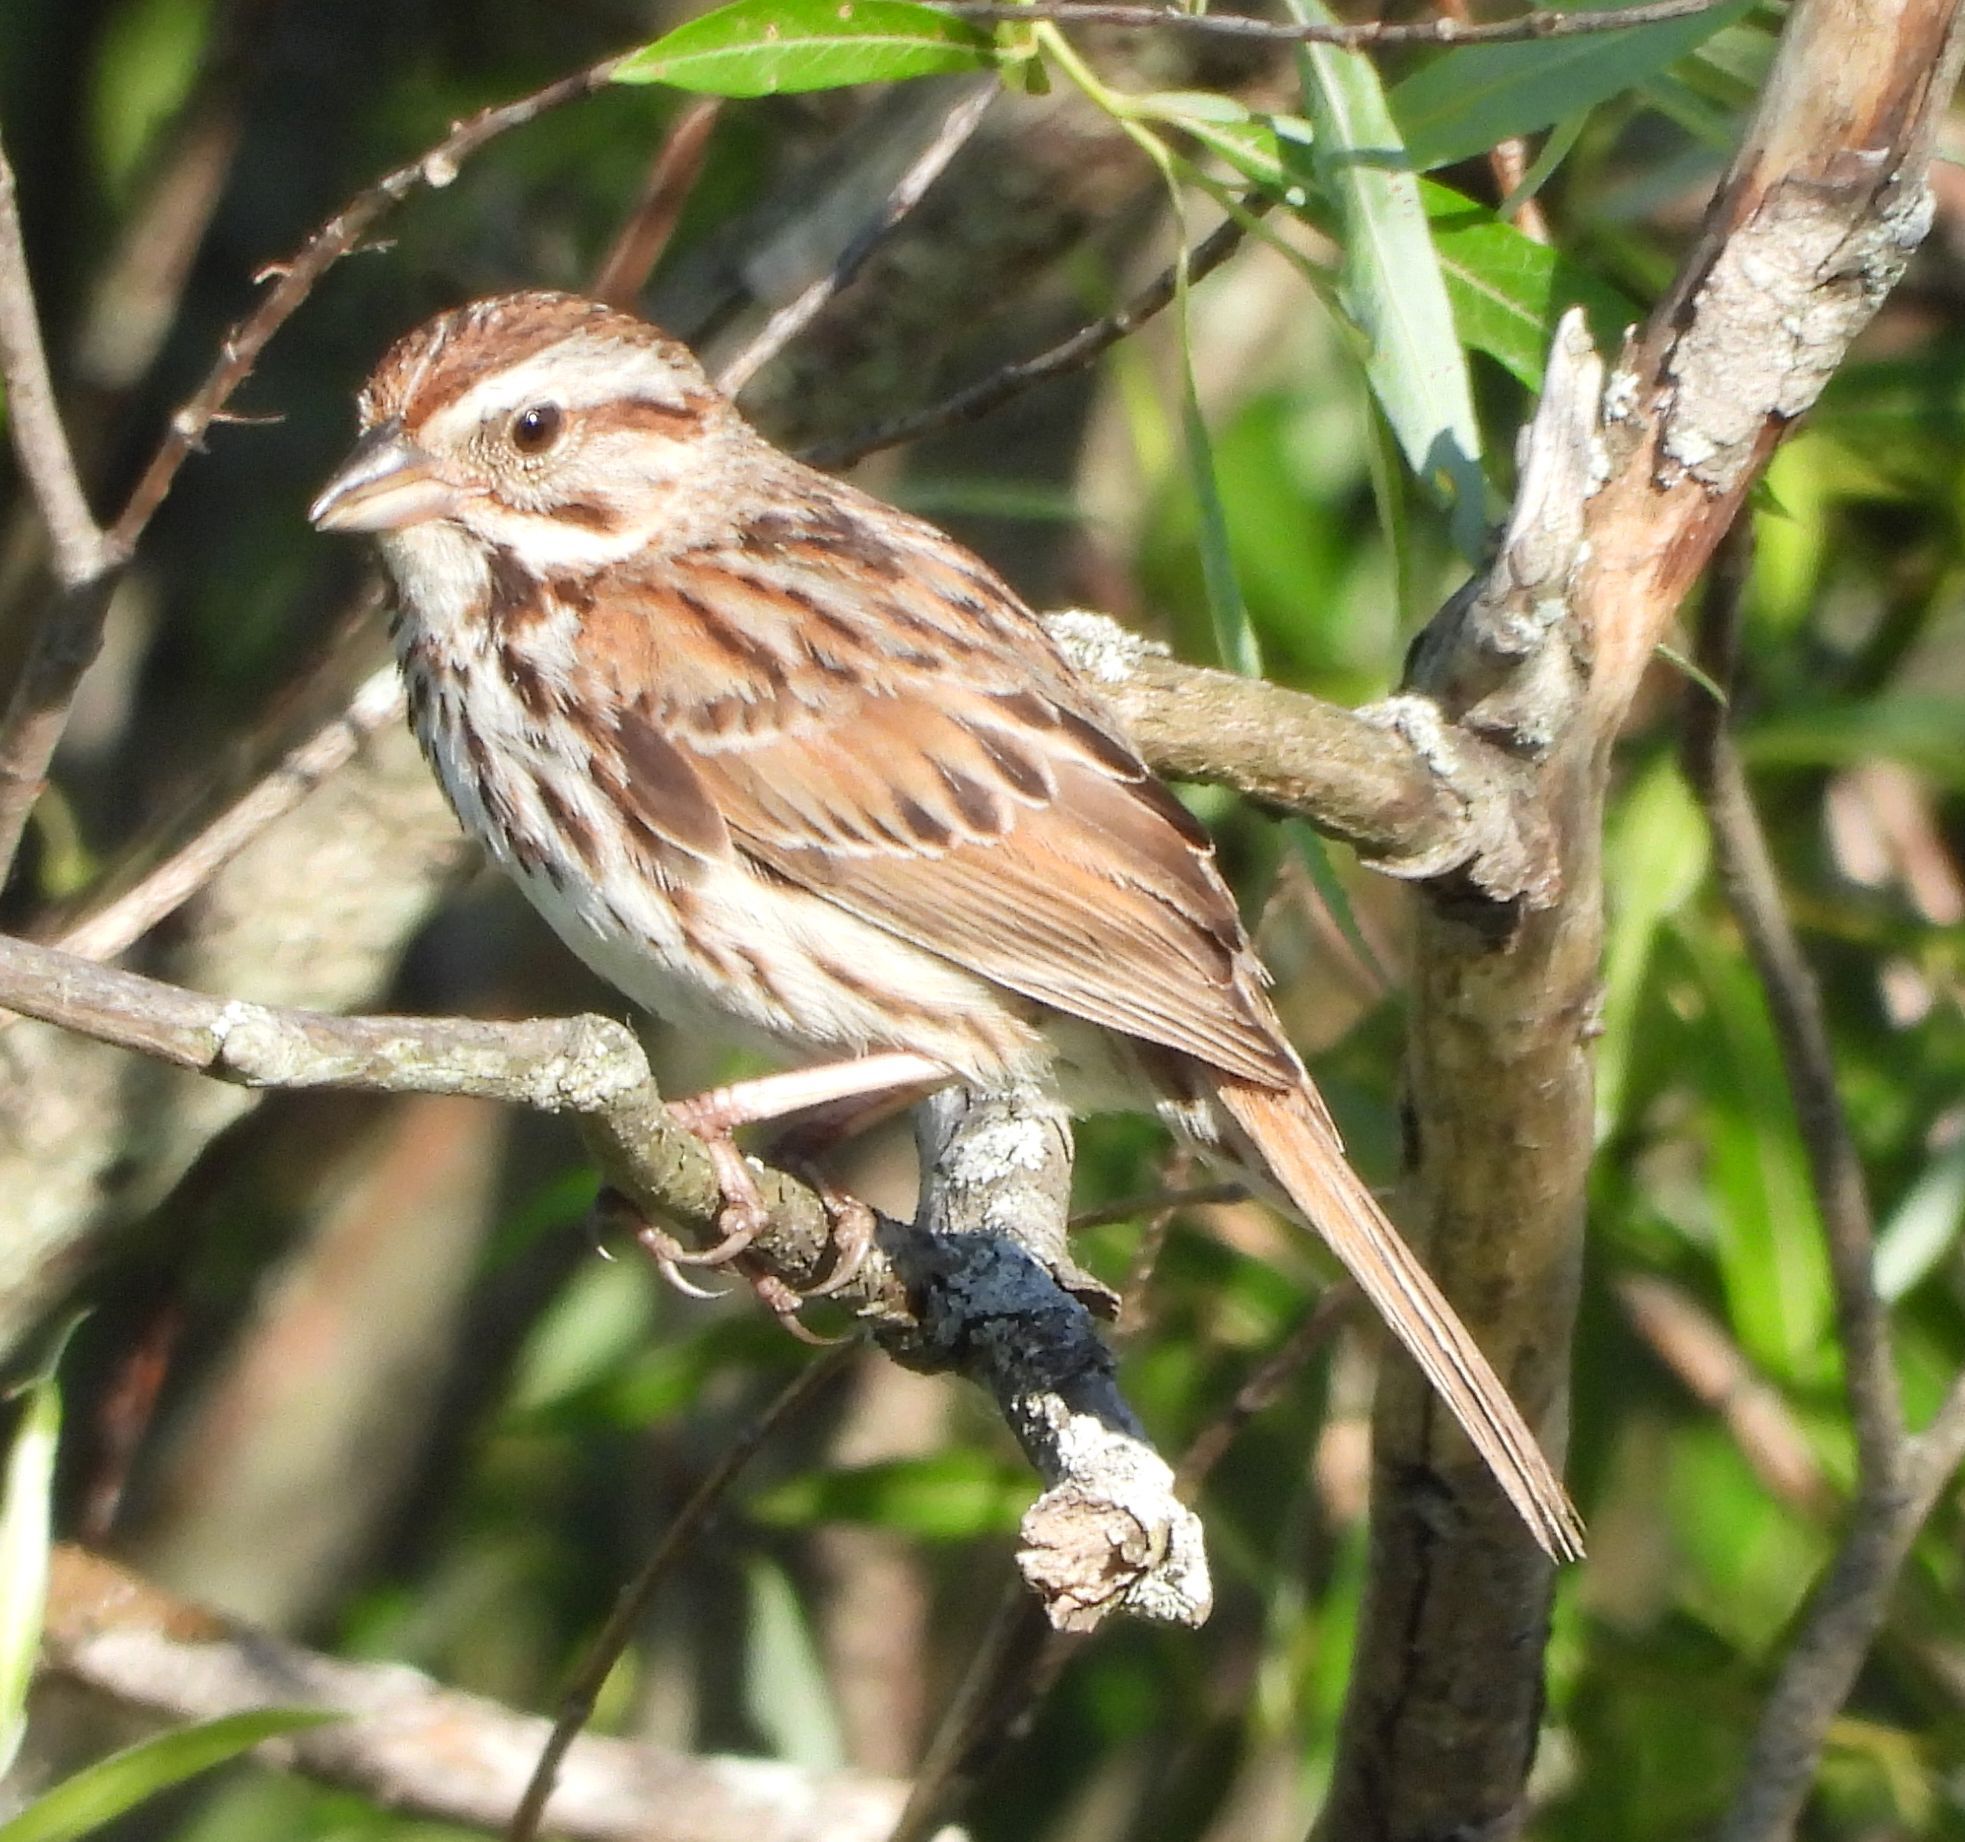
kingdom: Animalia
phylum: Chordata
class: Aves
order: Passeriformes
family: Passerellidae
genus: Melospiza
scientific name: Melospiza melodia
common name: Song sparrow
